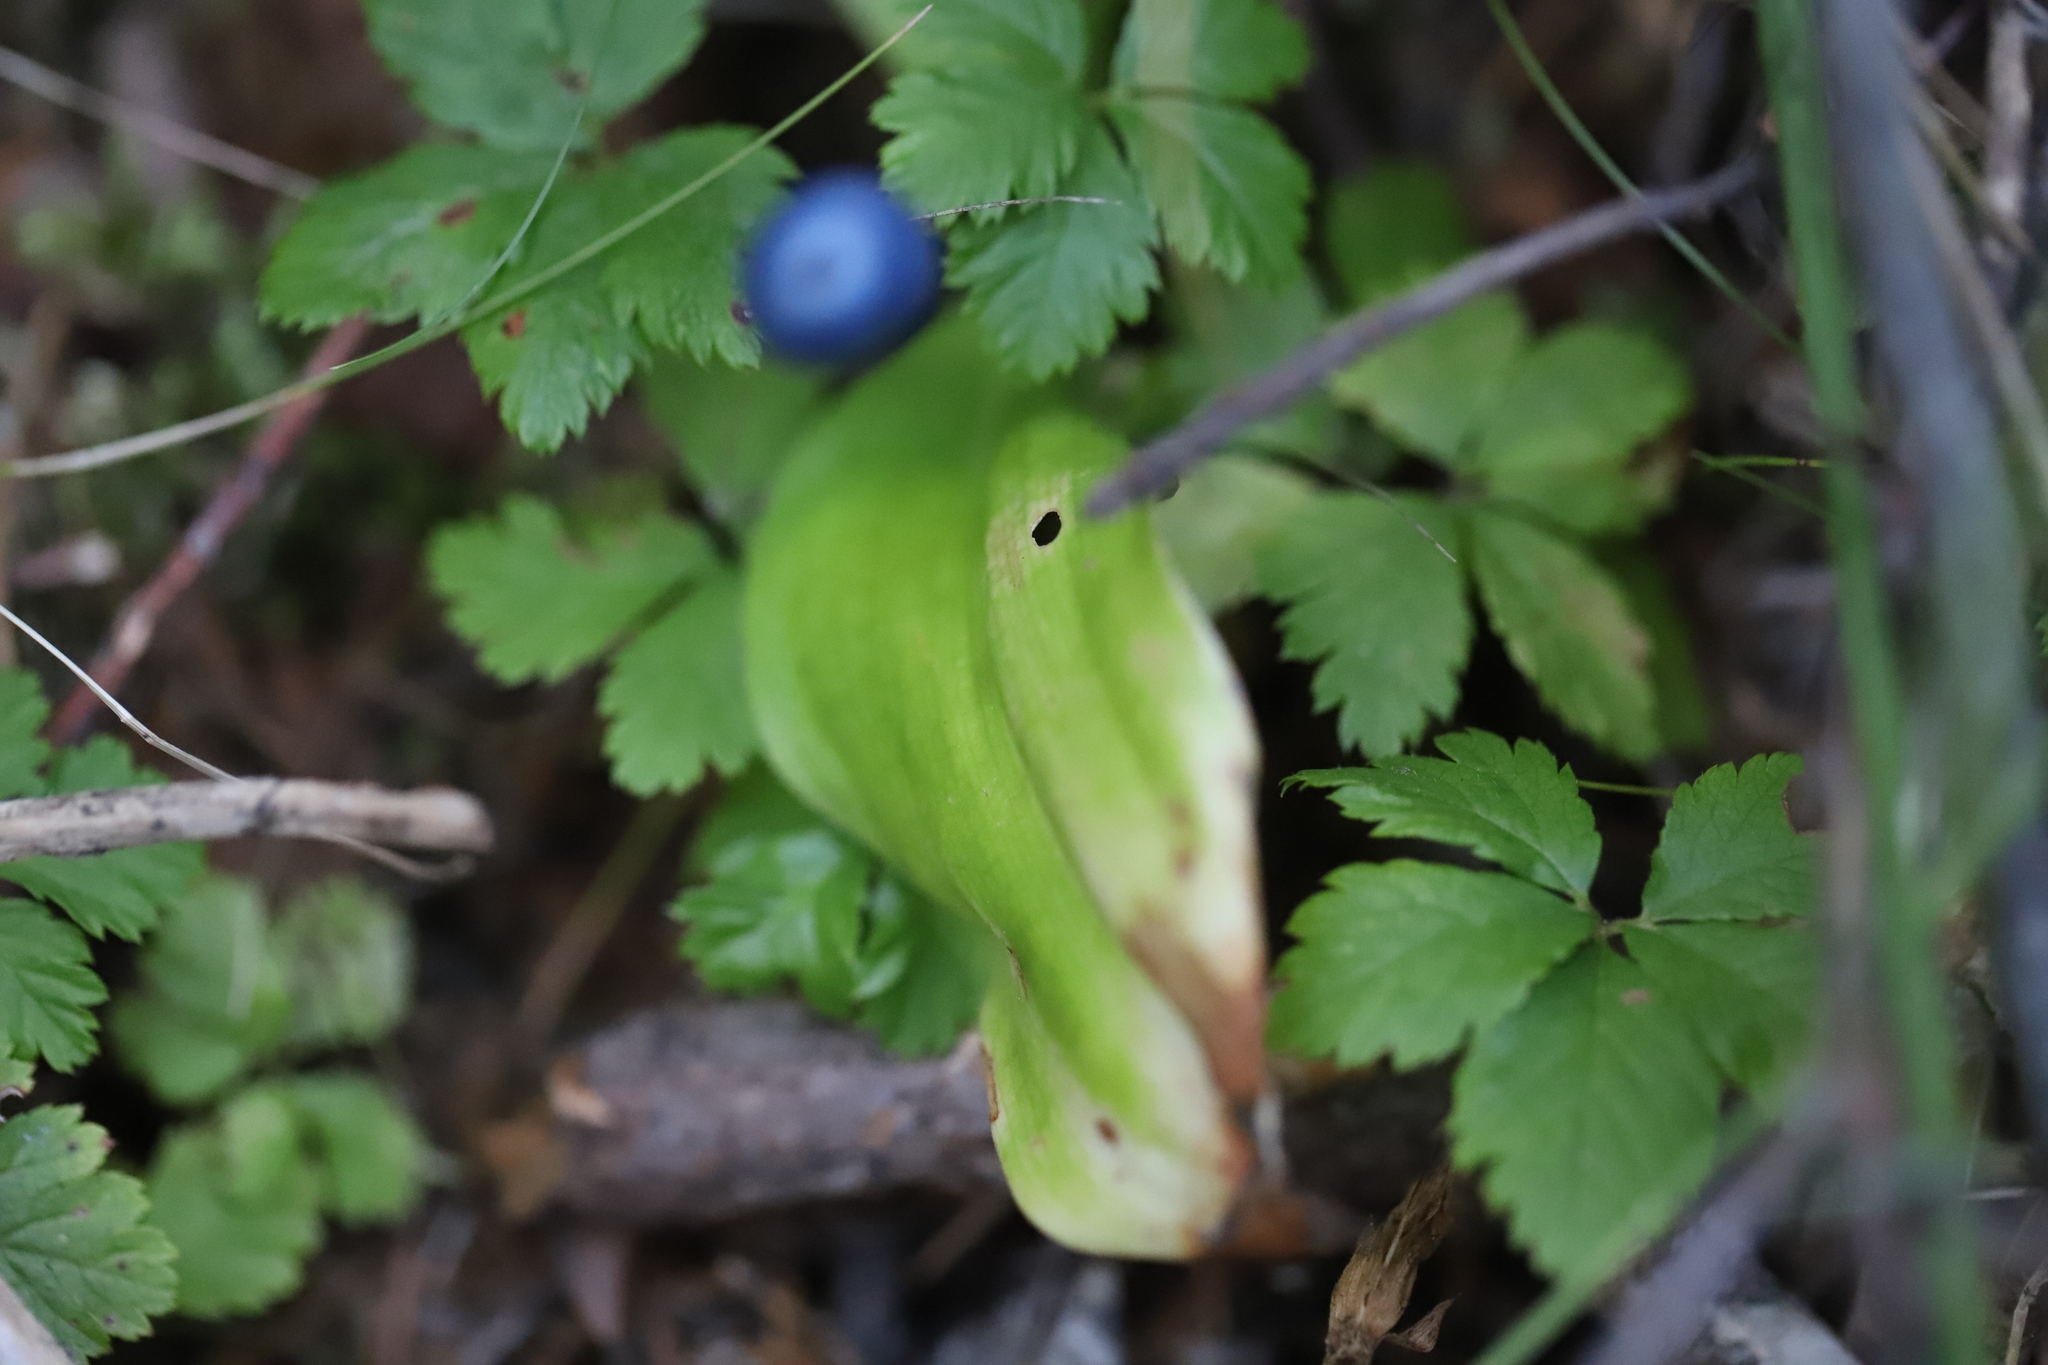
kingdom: Plantae
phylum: Tracheophyta
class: Liliopsida
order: Liliales
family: Liliaceae
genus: Clintonia
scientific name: Clintonia uniflora
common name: Queen's cup
